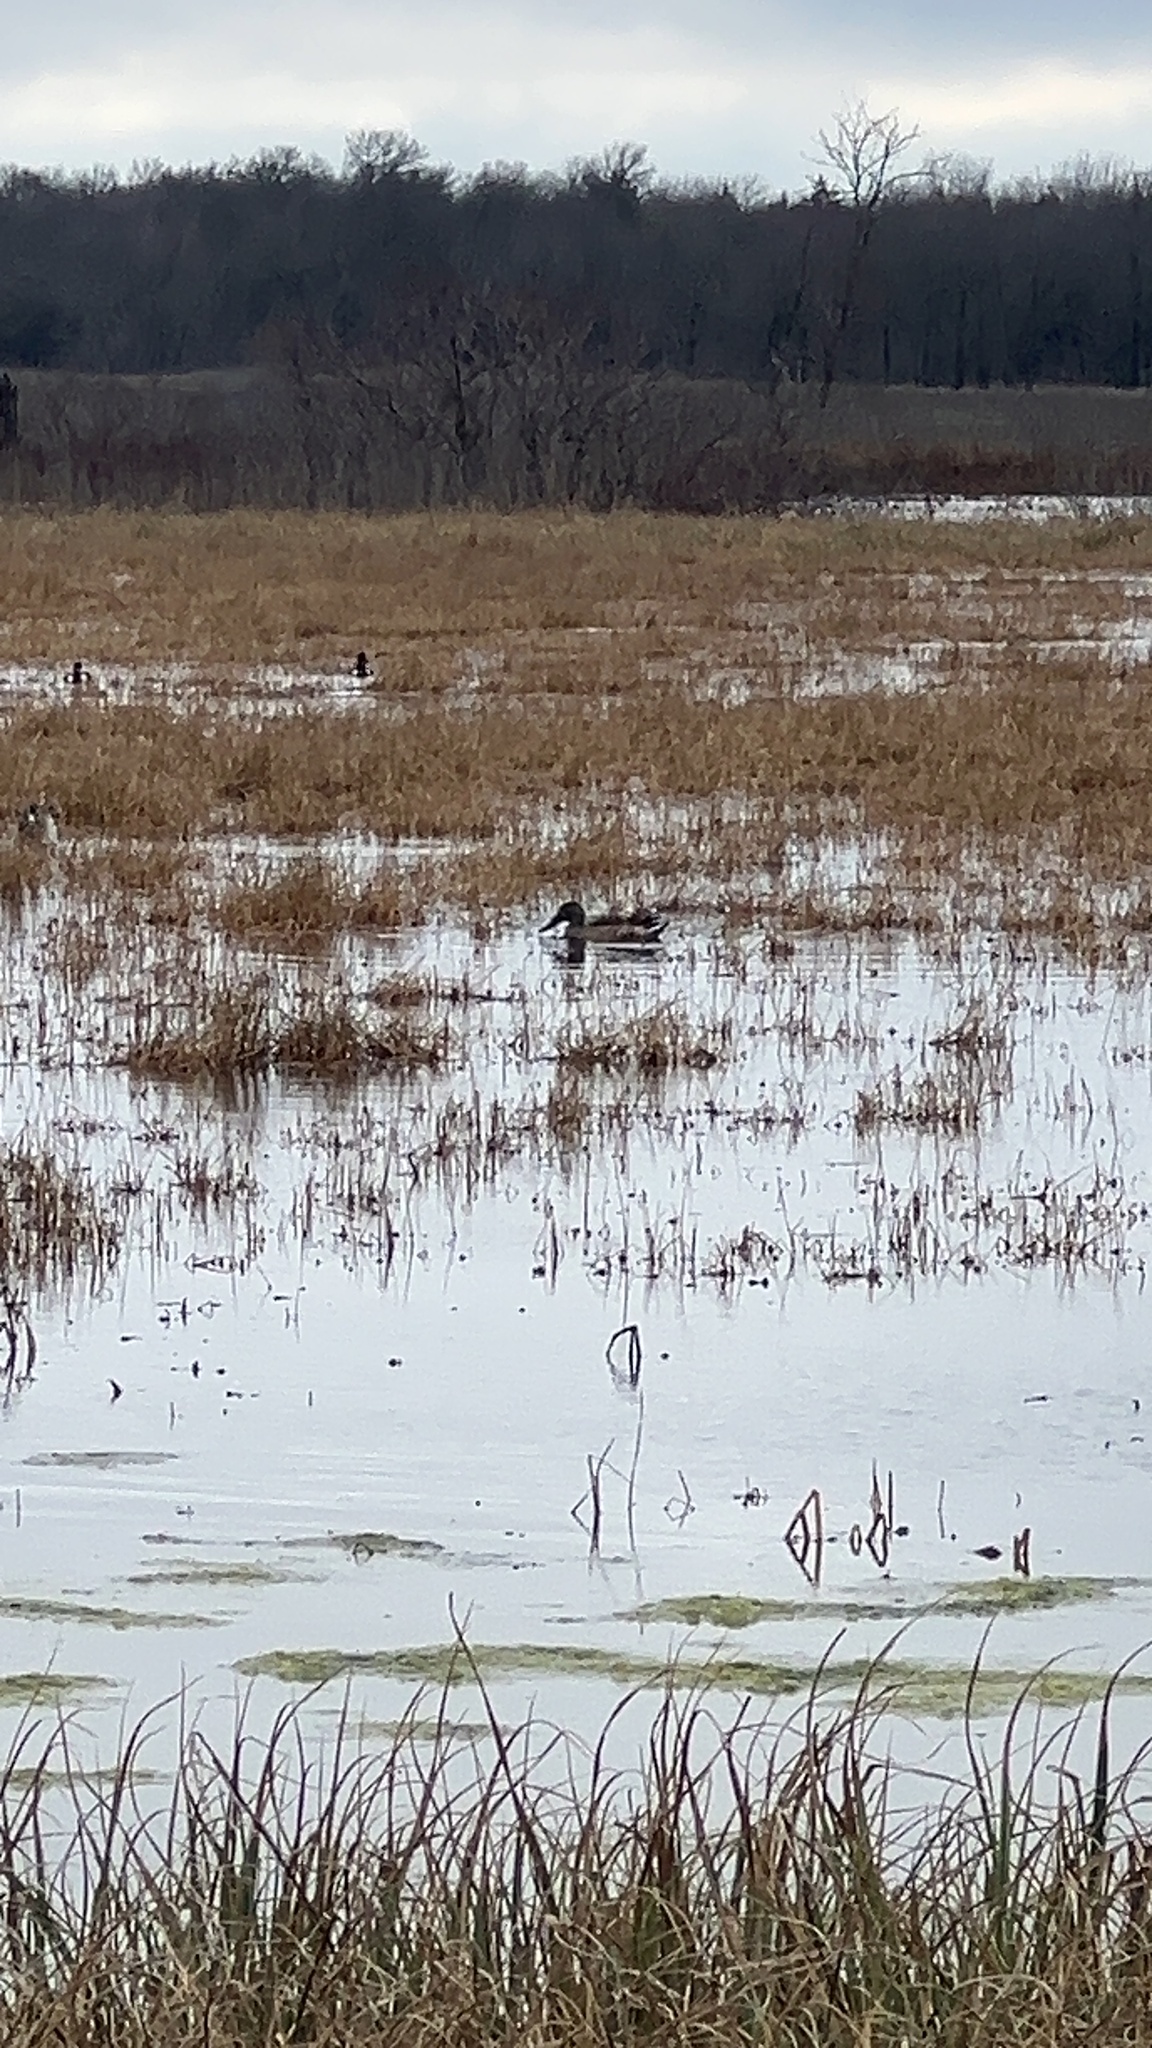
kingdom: Animalia
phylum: Chordata
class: Aves
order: Anseriformes
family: Anatidae
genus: Spatula
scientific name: Spatula clypeata
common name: Northern shoveler
